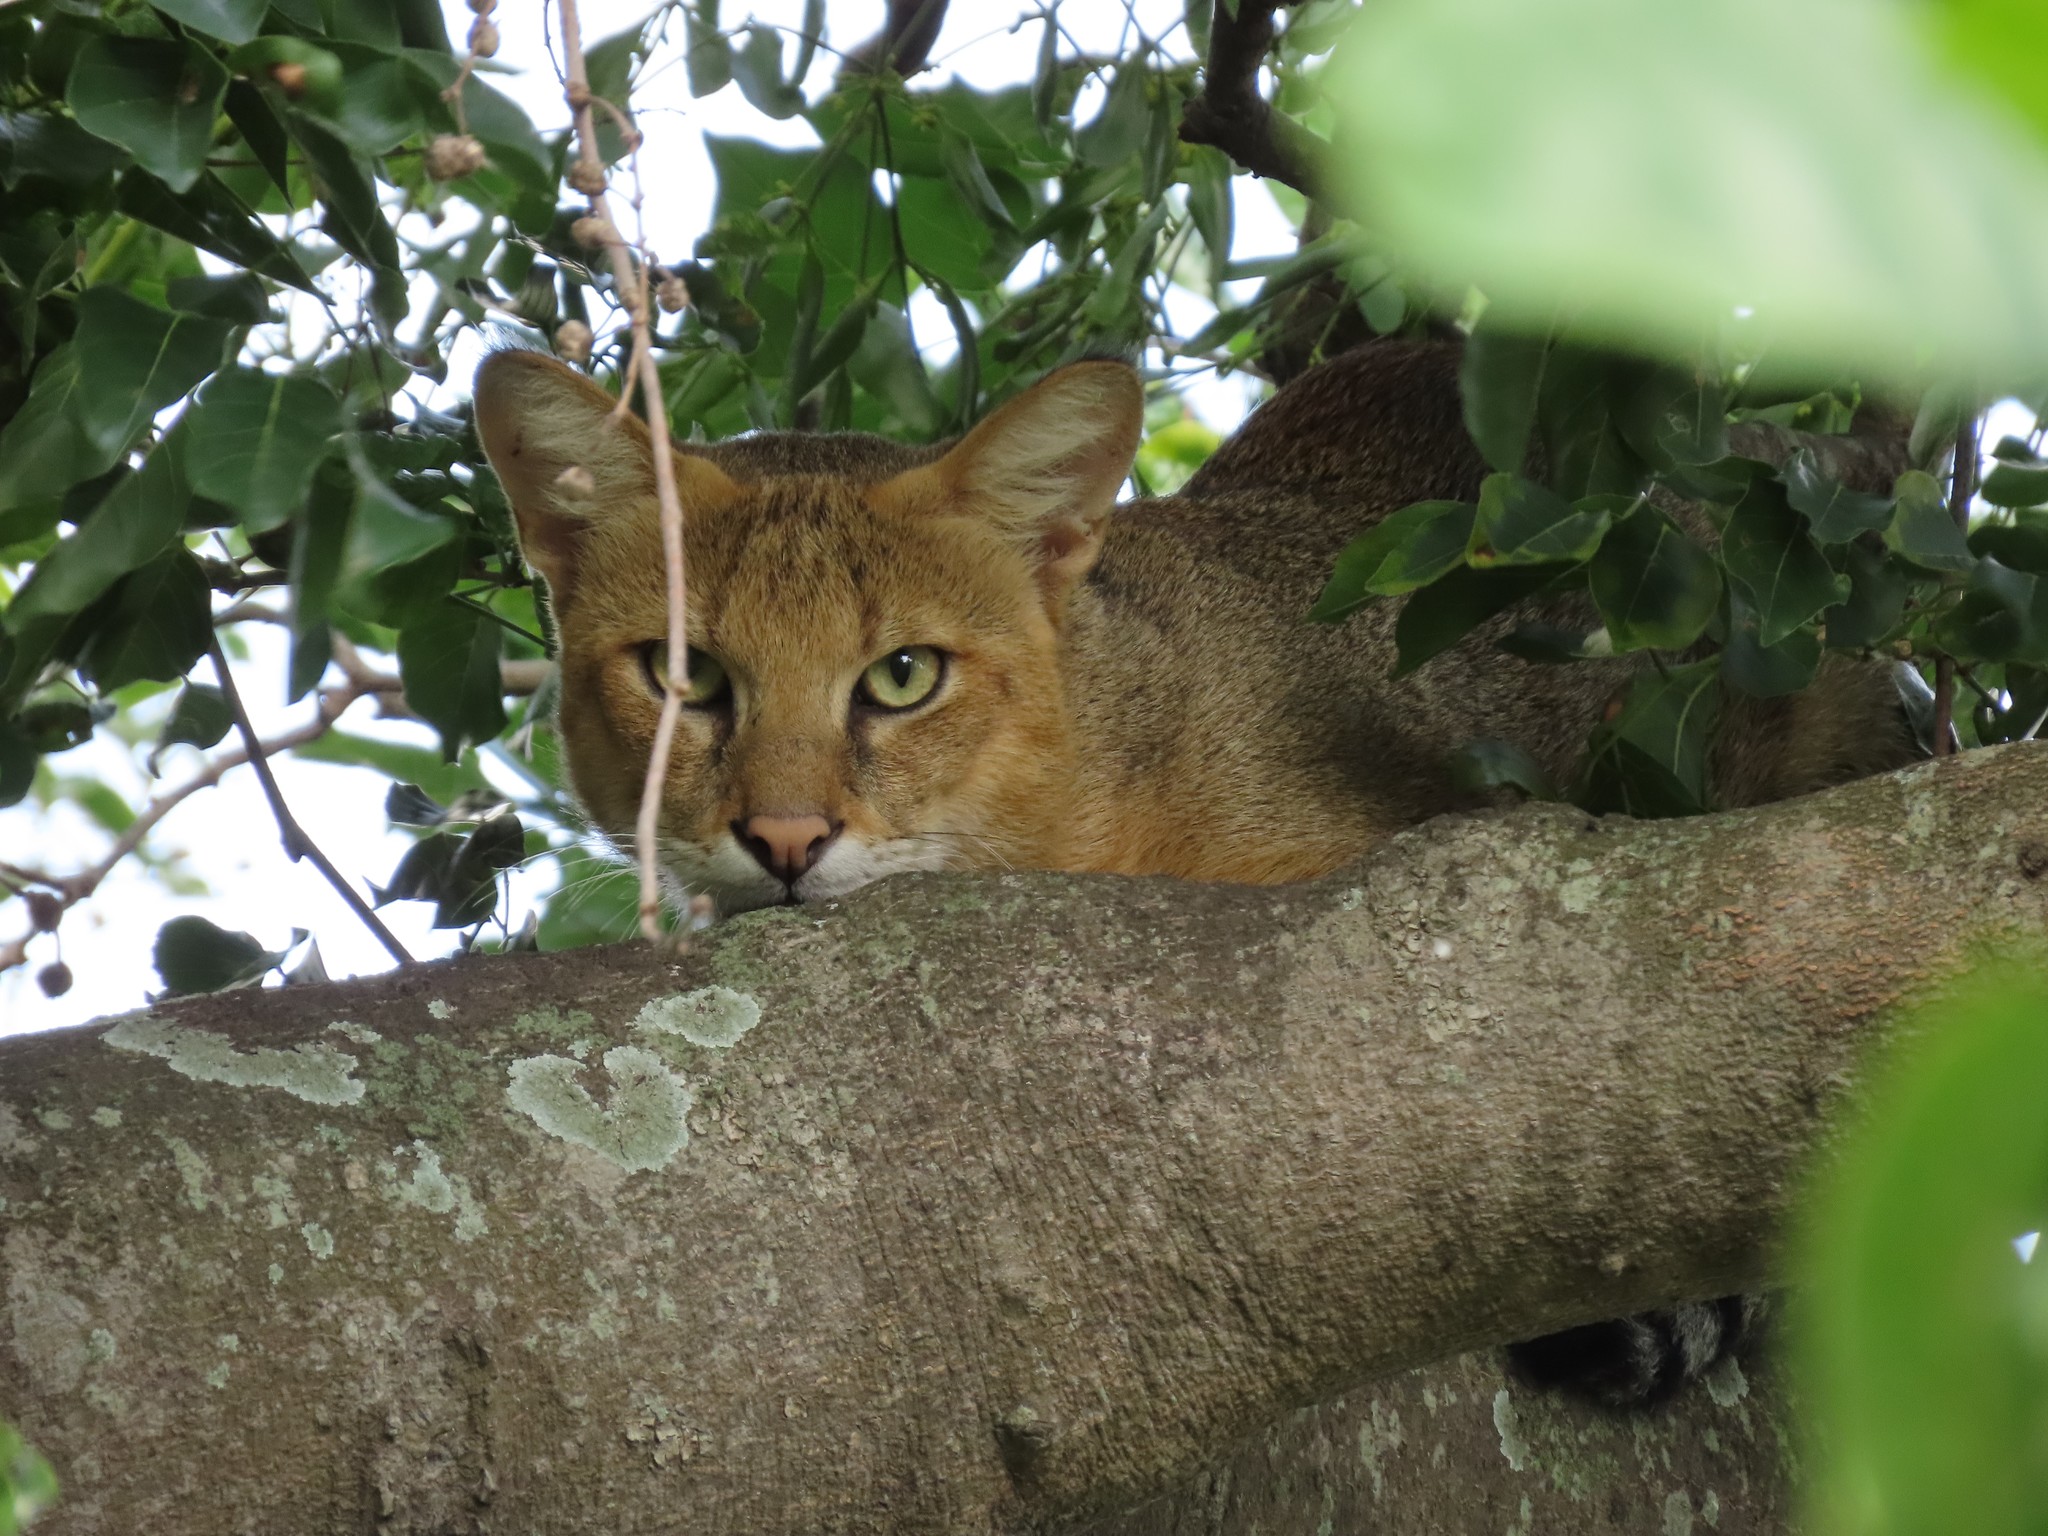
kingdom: Animalia
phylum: Chordata
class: Mammalia
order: Carnivora
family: Felidae
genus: Felis
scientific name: Felis chaus
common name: Jungle cat
